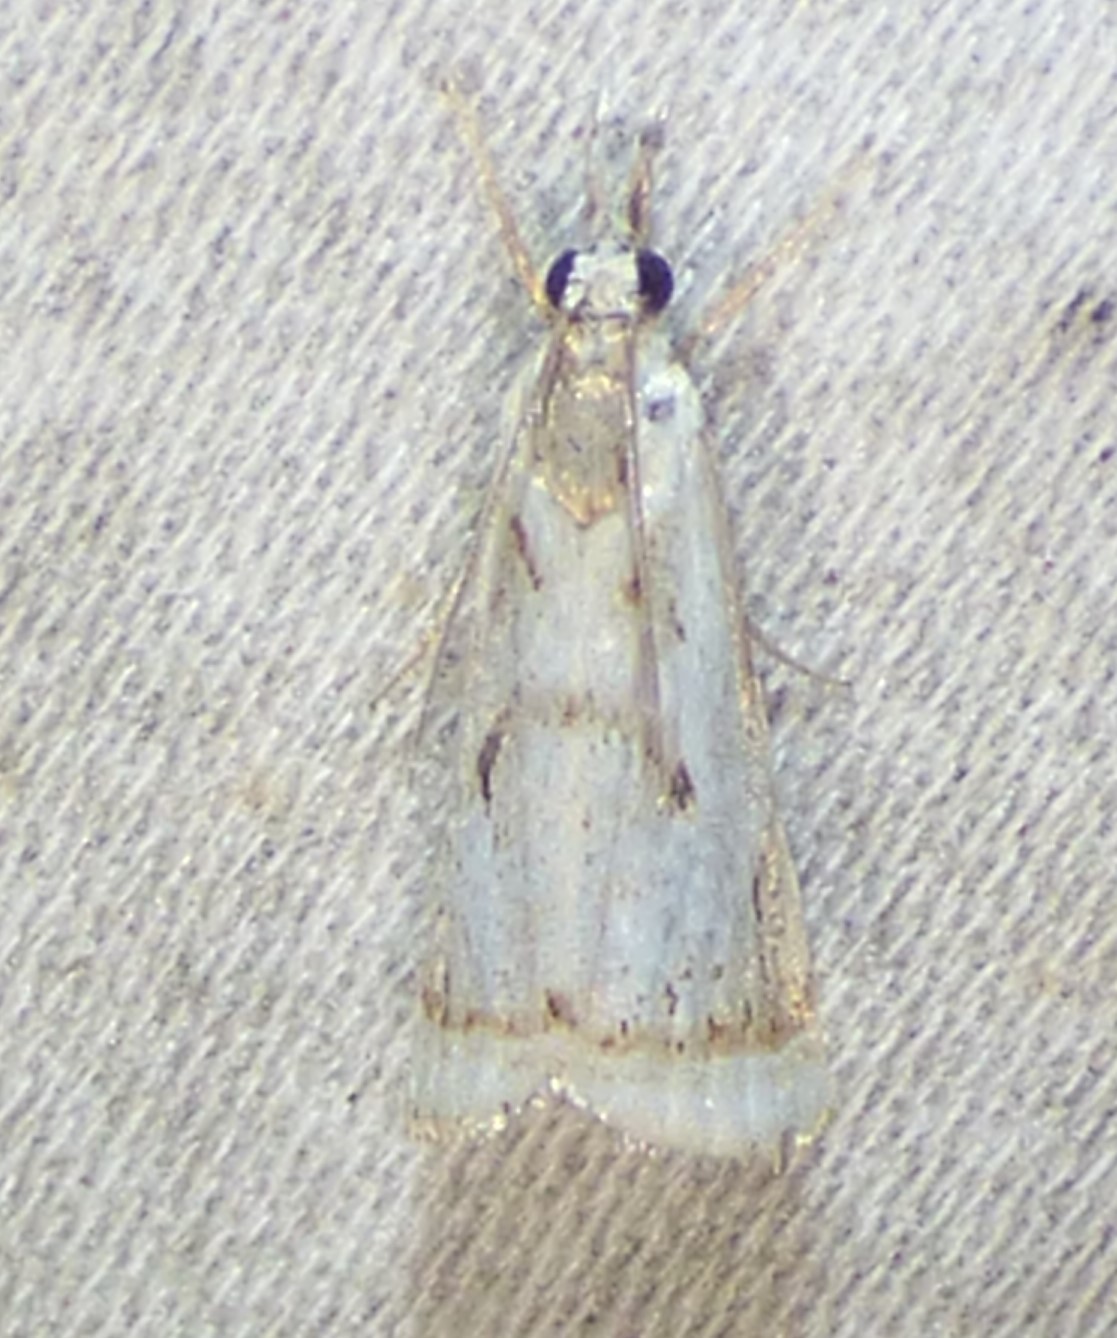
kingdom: Animalia
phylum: Arthropoda
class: Insecta
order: Lepidoptera
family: Crambidae
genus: Microcrambus
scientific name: Microcrambus elegans
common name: Elegant grass-veneer
